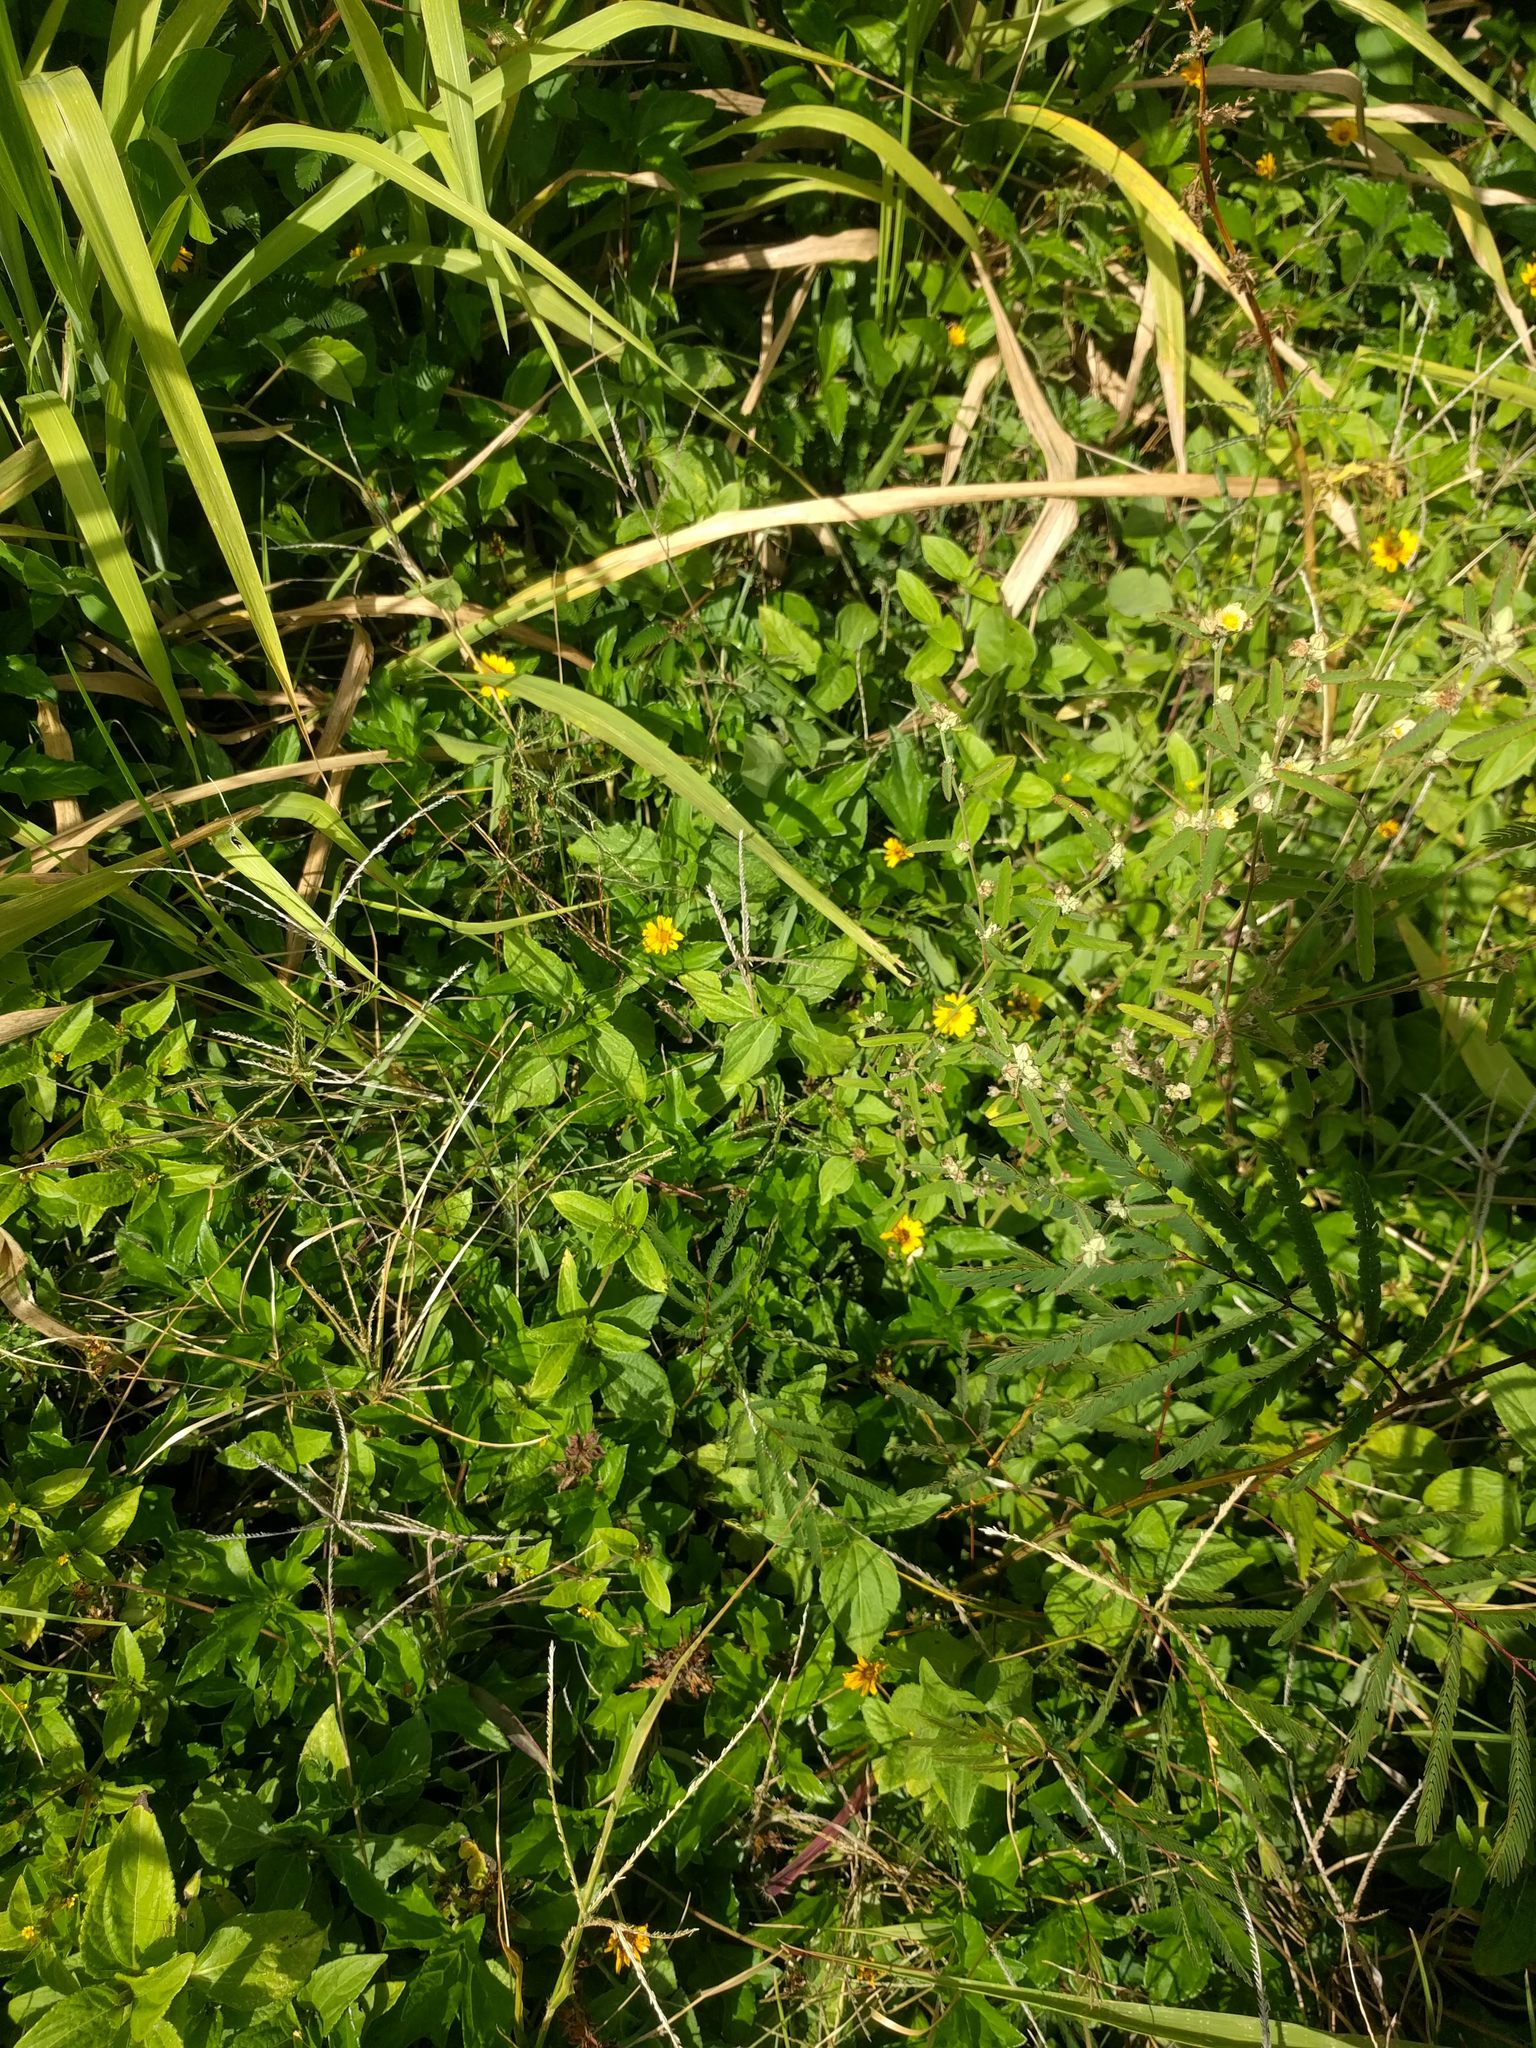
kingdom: Plantae
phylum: Tracheophyta
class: Magnoliopsida
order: Asterales
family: Asteraceae
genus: Sphagneticola
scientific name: Sphagneticola trilobata
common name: Bay biscayne creeping-oxeye
